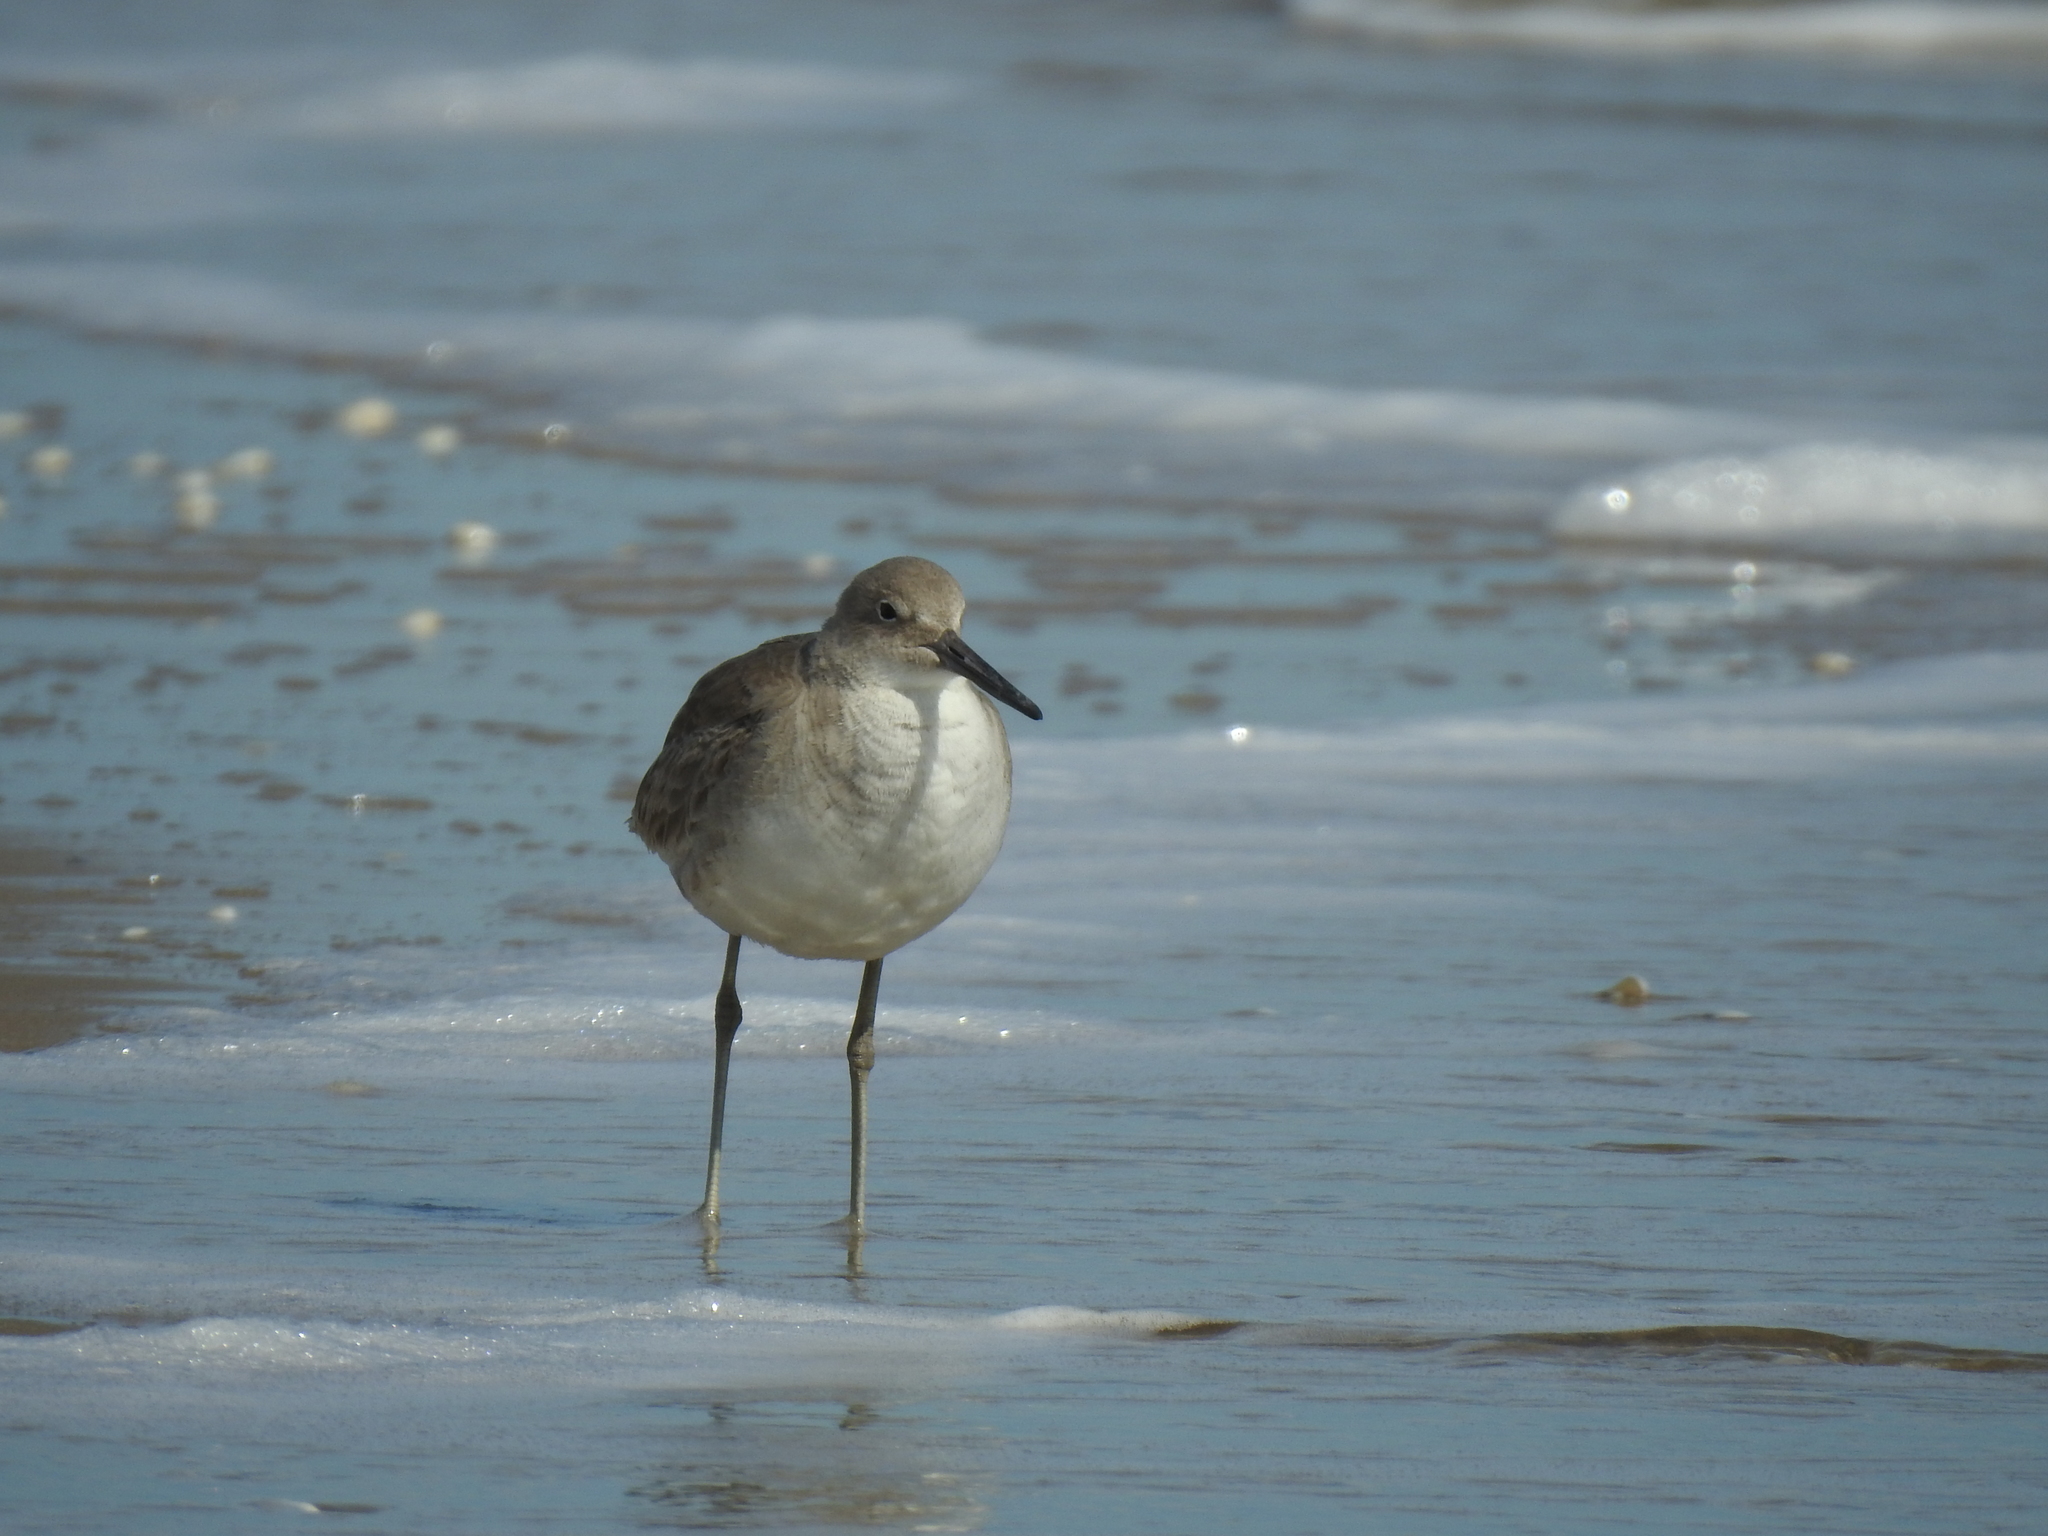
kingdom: Animalia
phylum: Chordata
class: Aves
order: Charadriiformes
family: Scolopacidae
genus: Tringa
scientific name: Tringa semipalmata
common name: Willet
